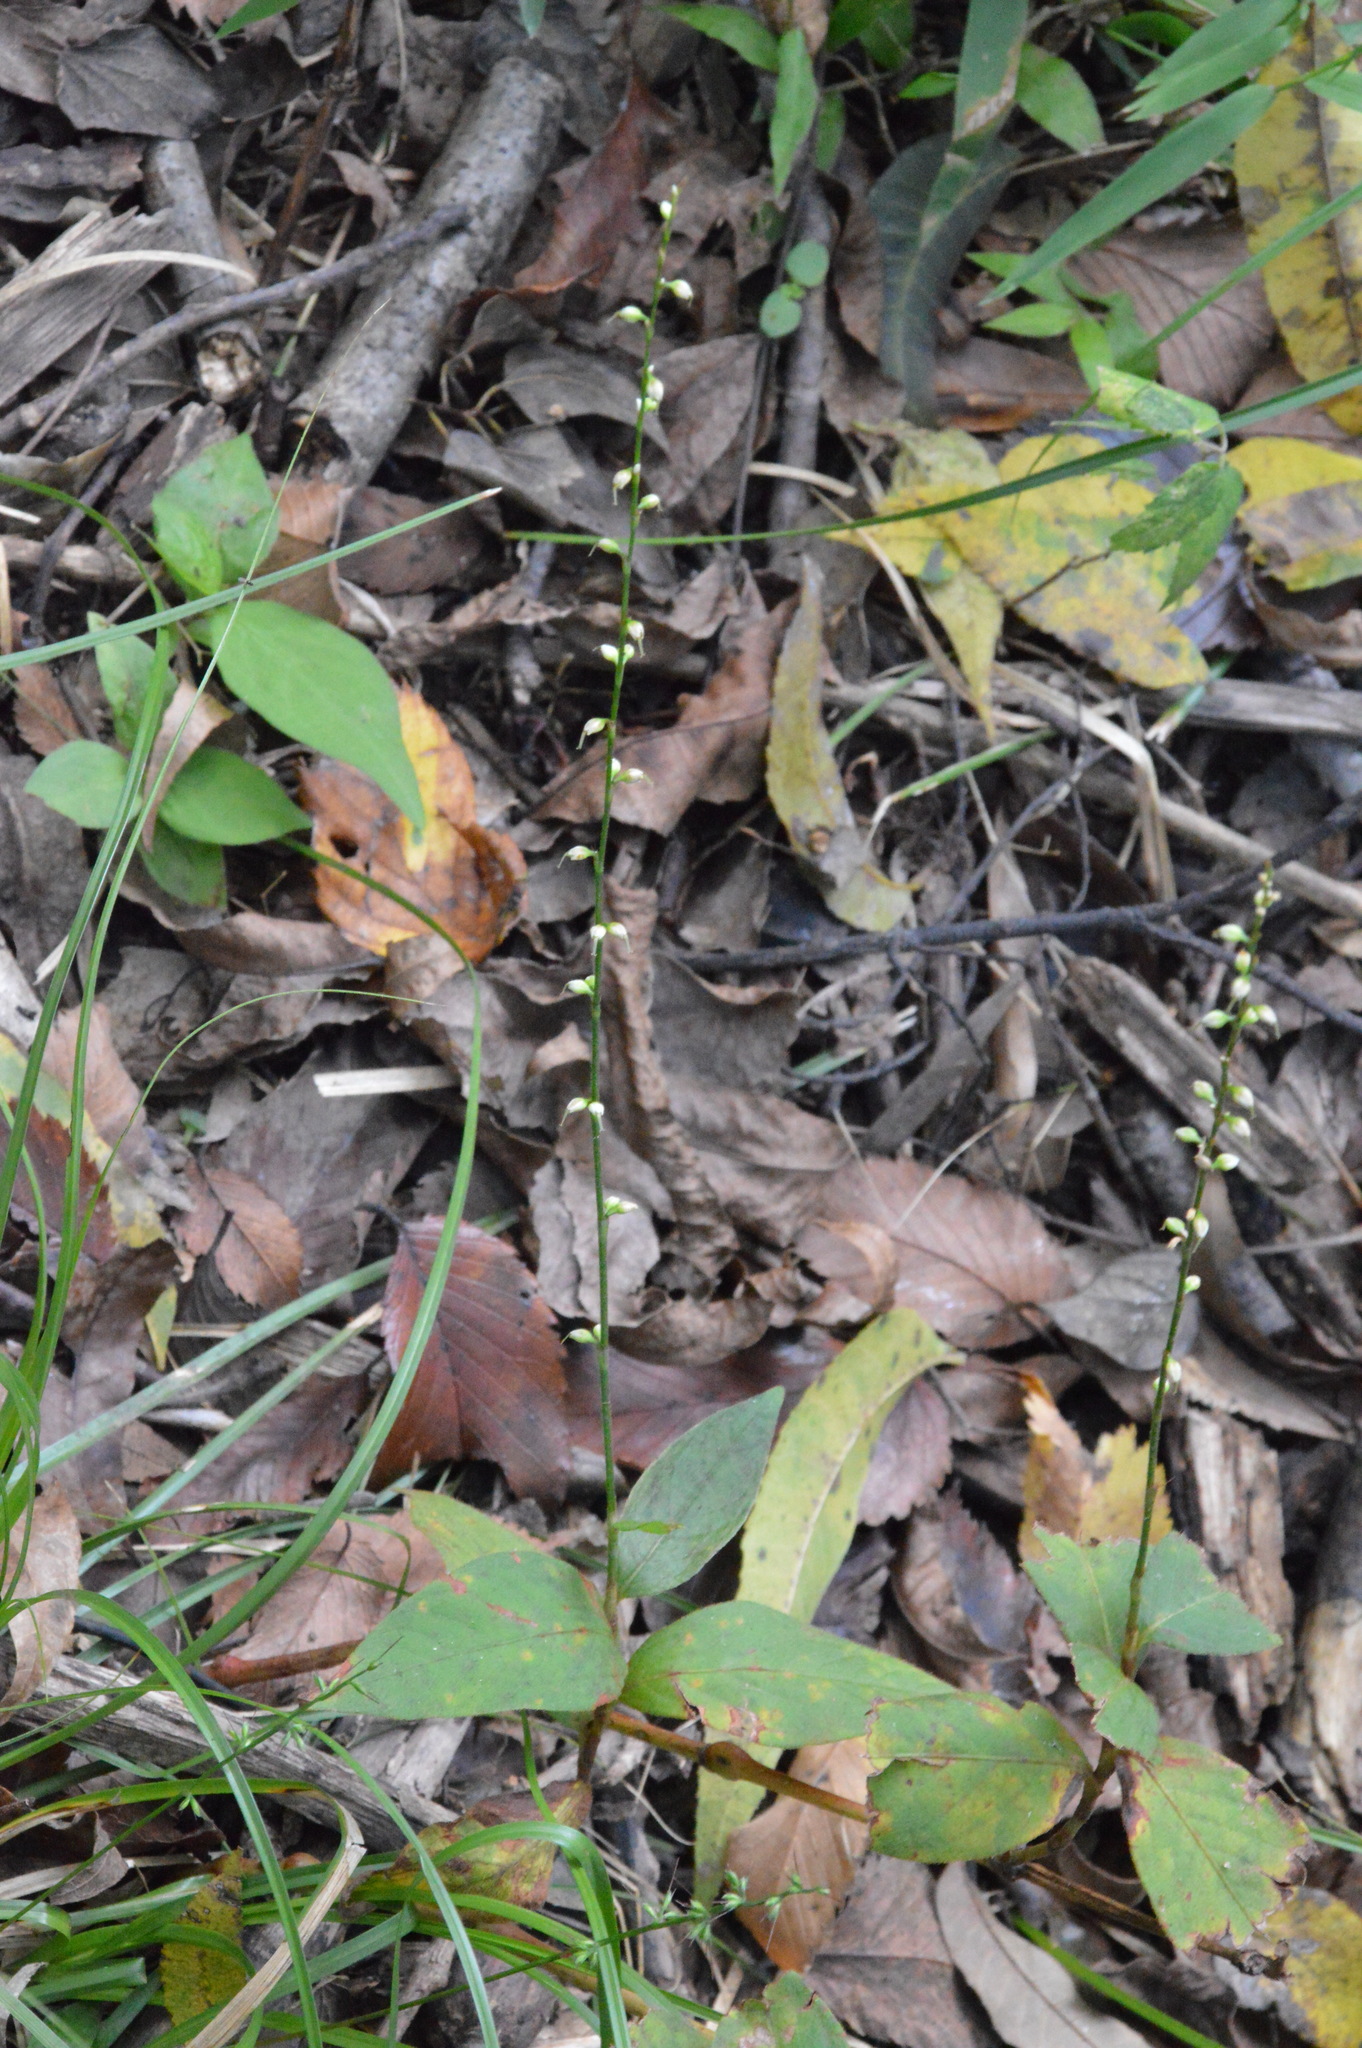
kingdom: Plantae
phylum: Tracheophyta
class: Magnoliopsida
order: Caryophyllales
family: Polygonaceae
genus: Persicaria
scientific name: Persicaria virginiana
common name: Jumpseed
